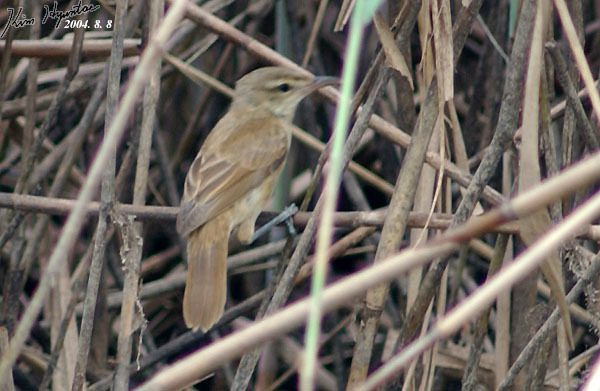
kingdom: Animalia
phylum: Chordata
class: Aves
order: Passeriformes
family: Acrocephalidae
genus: Acrocephalus
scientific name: Acrocephalus orientalis
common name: Oriental reed warbler
